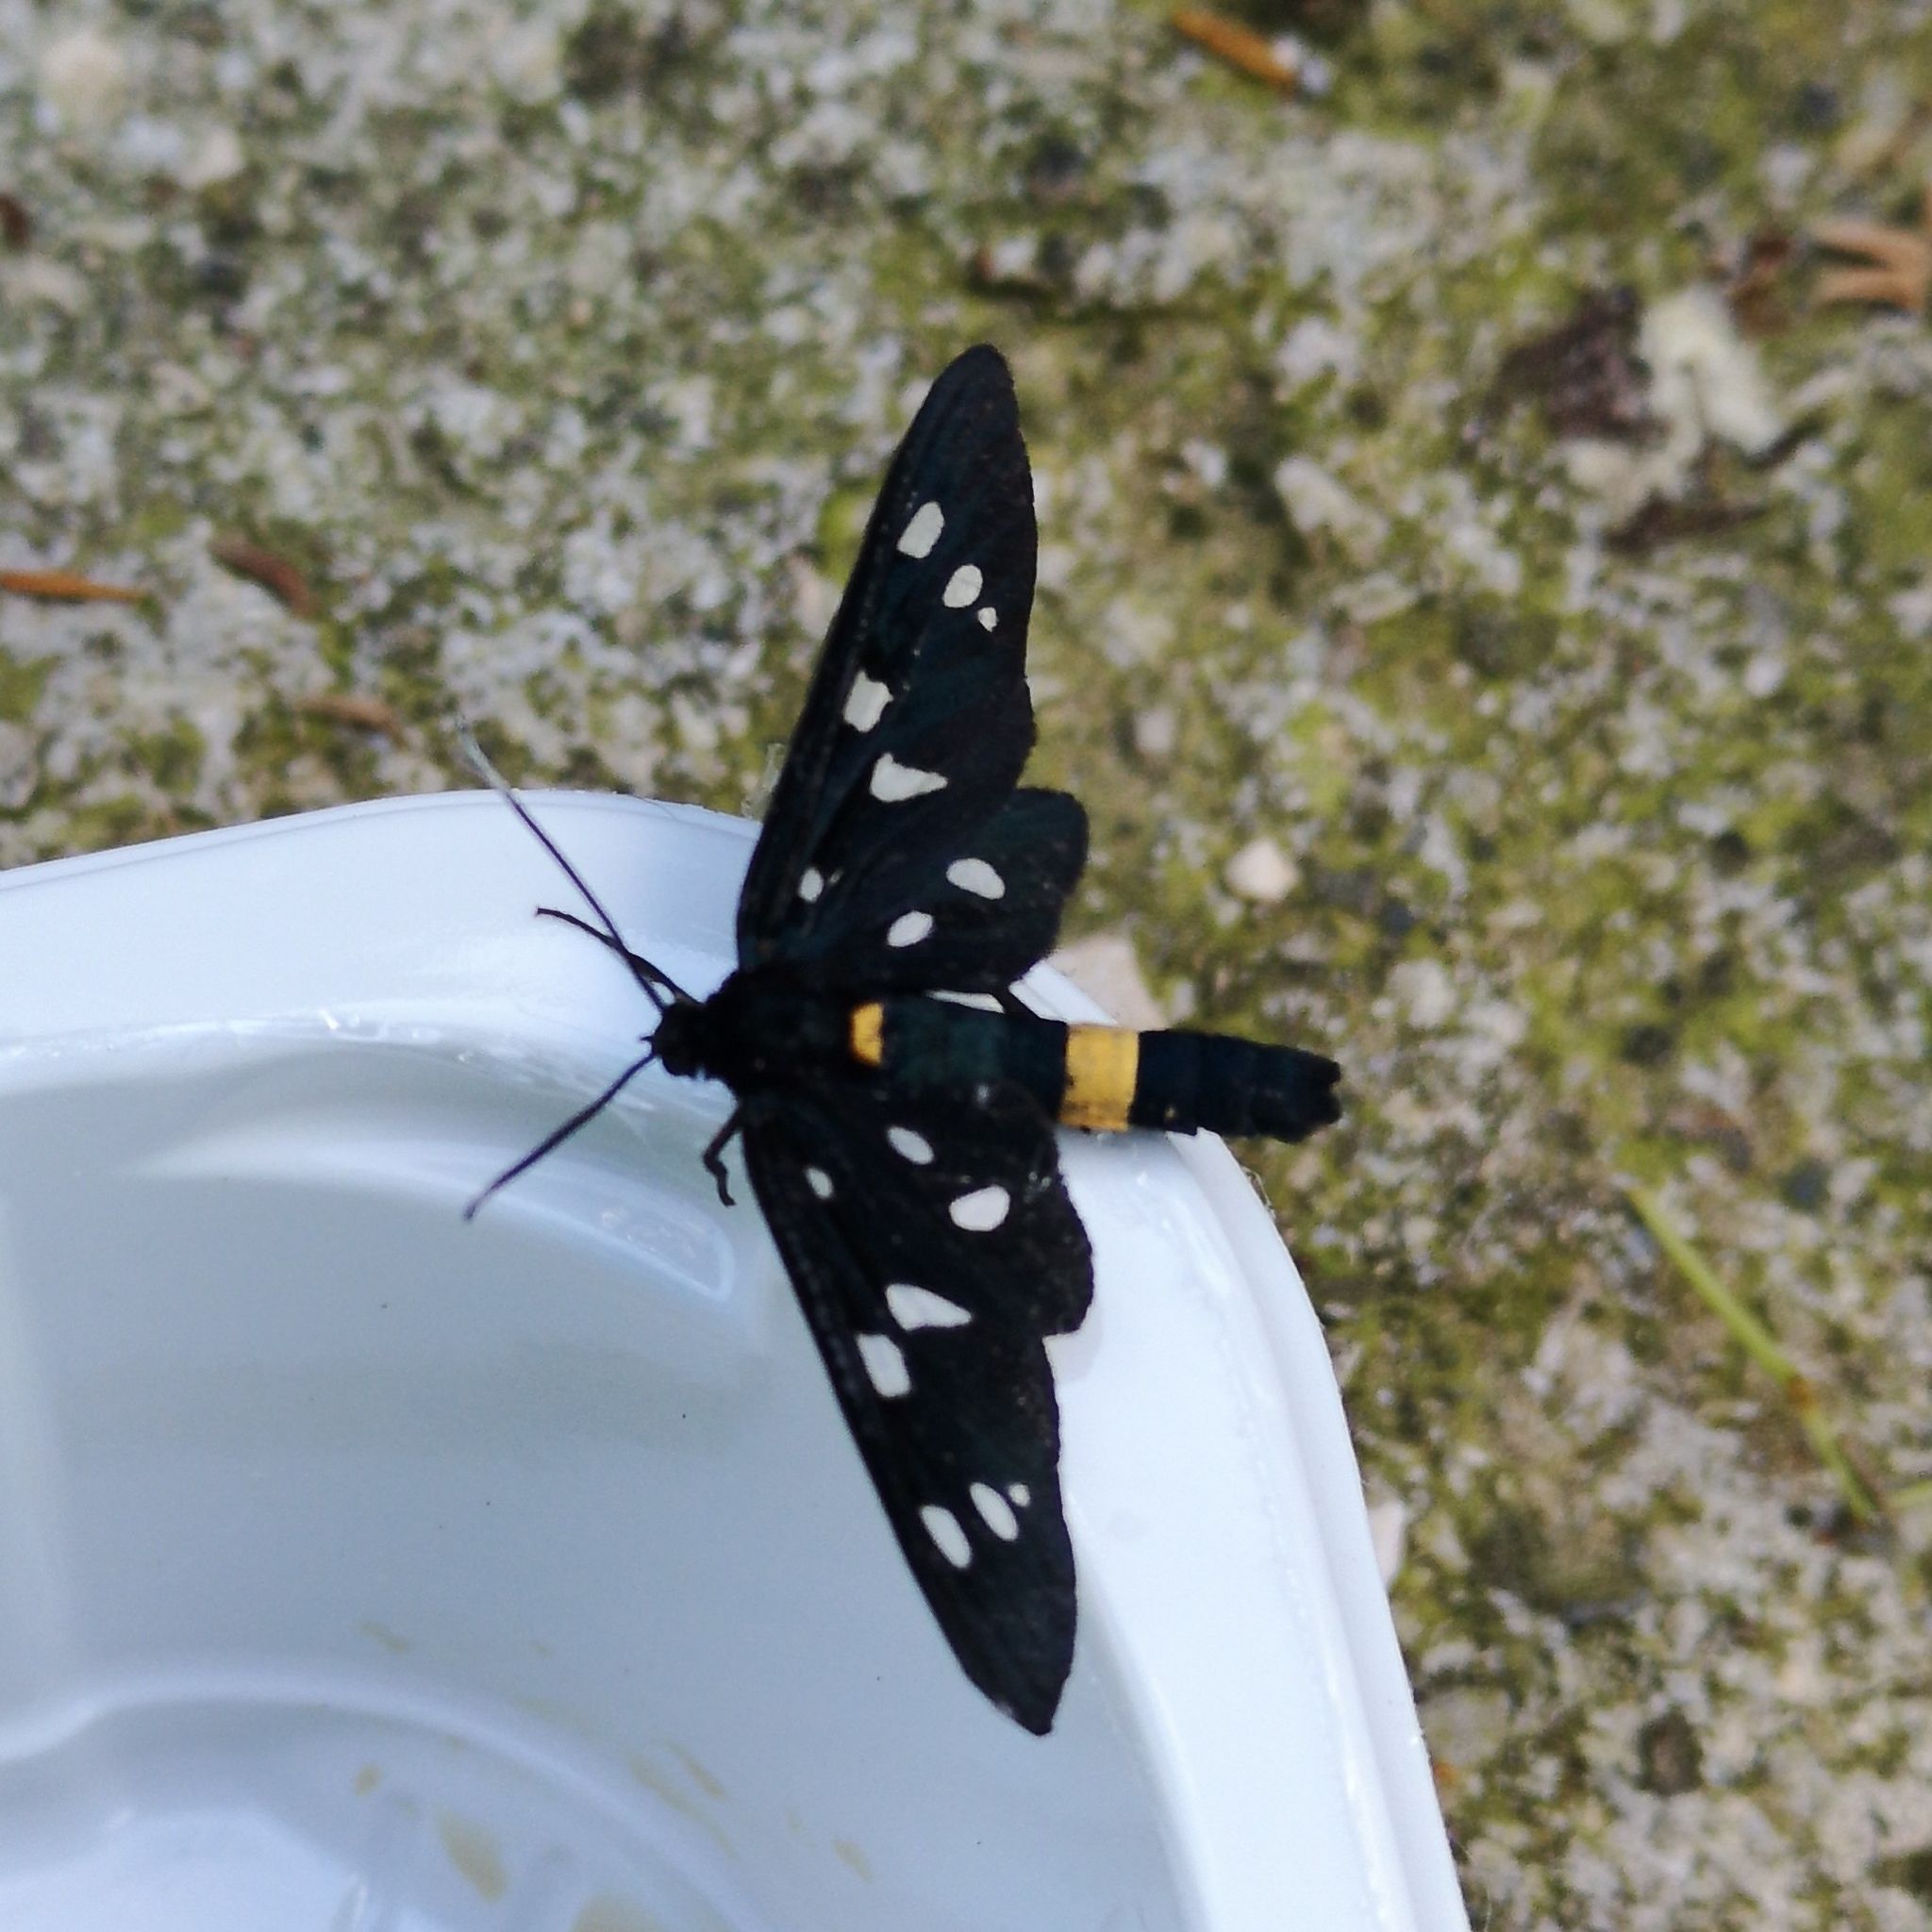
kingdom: Animalia
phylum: Arthropoda
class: Insecta
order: Lepidoptera
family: Erebidae
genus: Amata
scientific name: Amata phegea
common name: Nine-spotted
